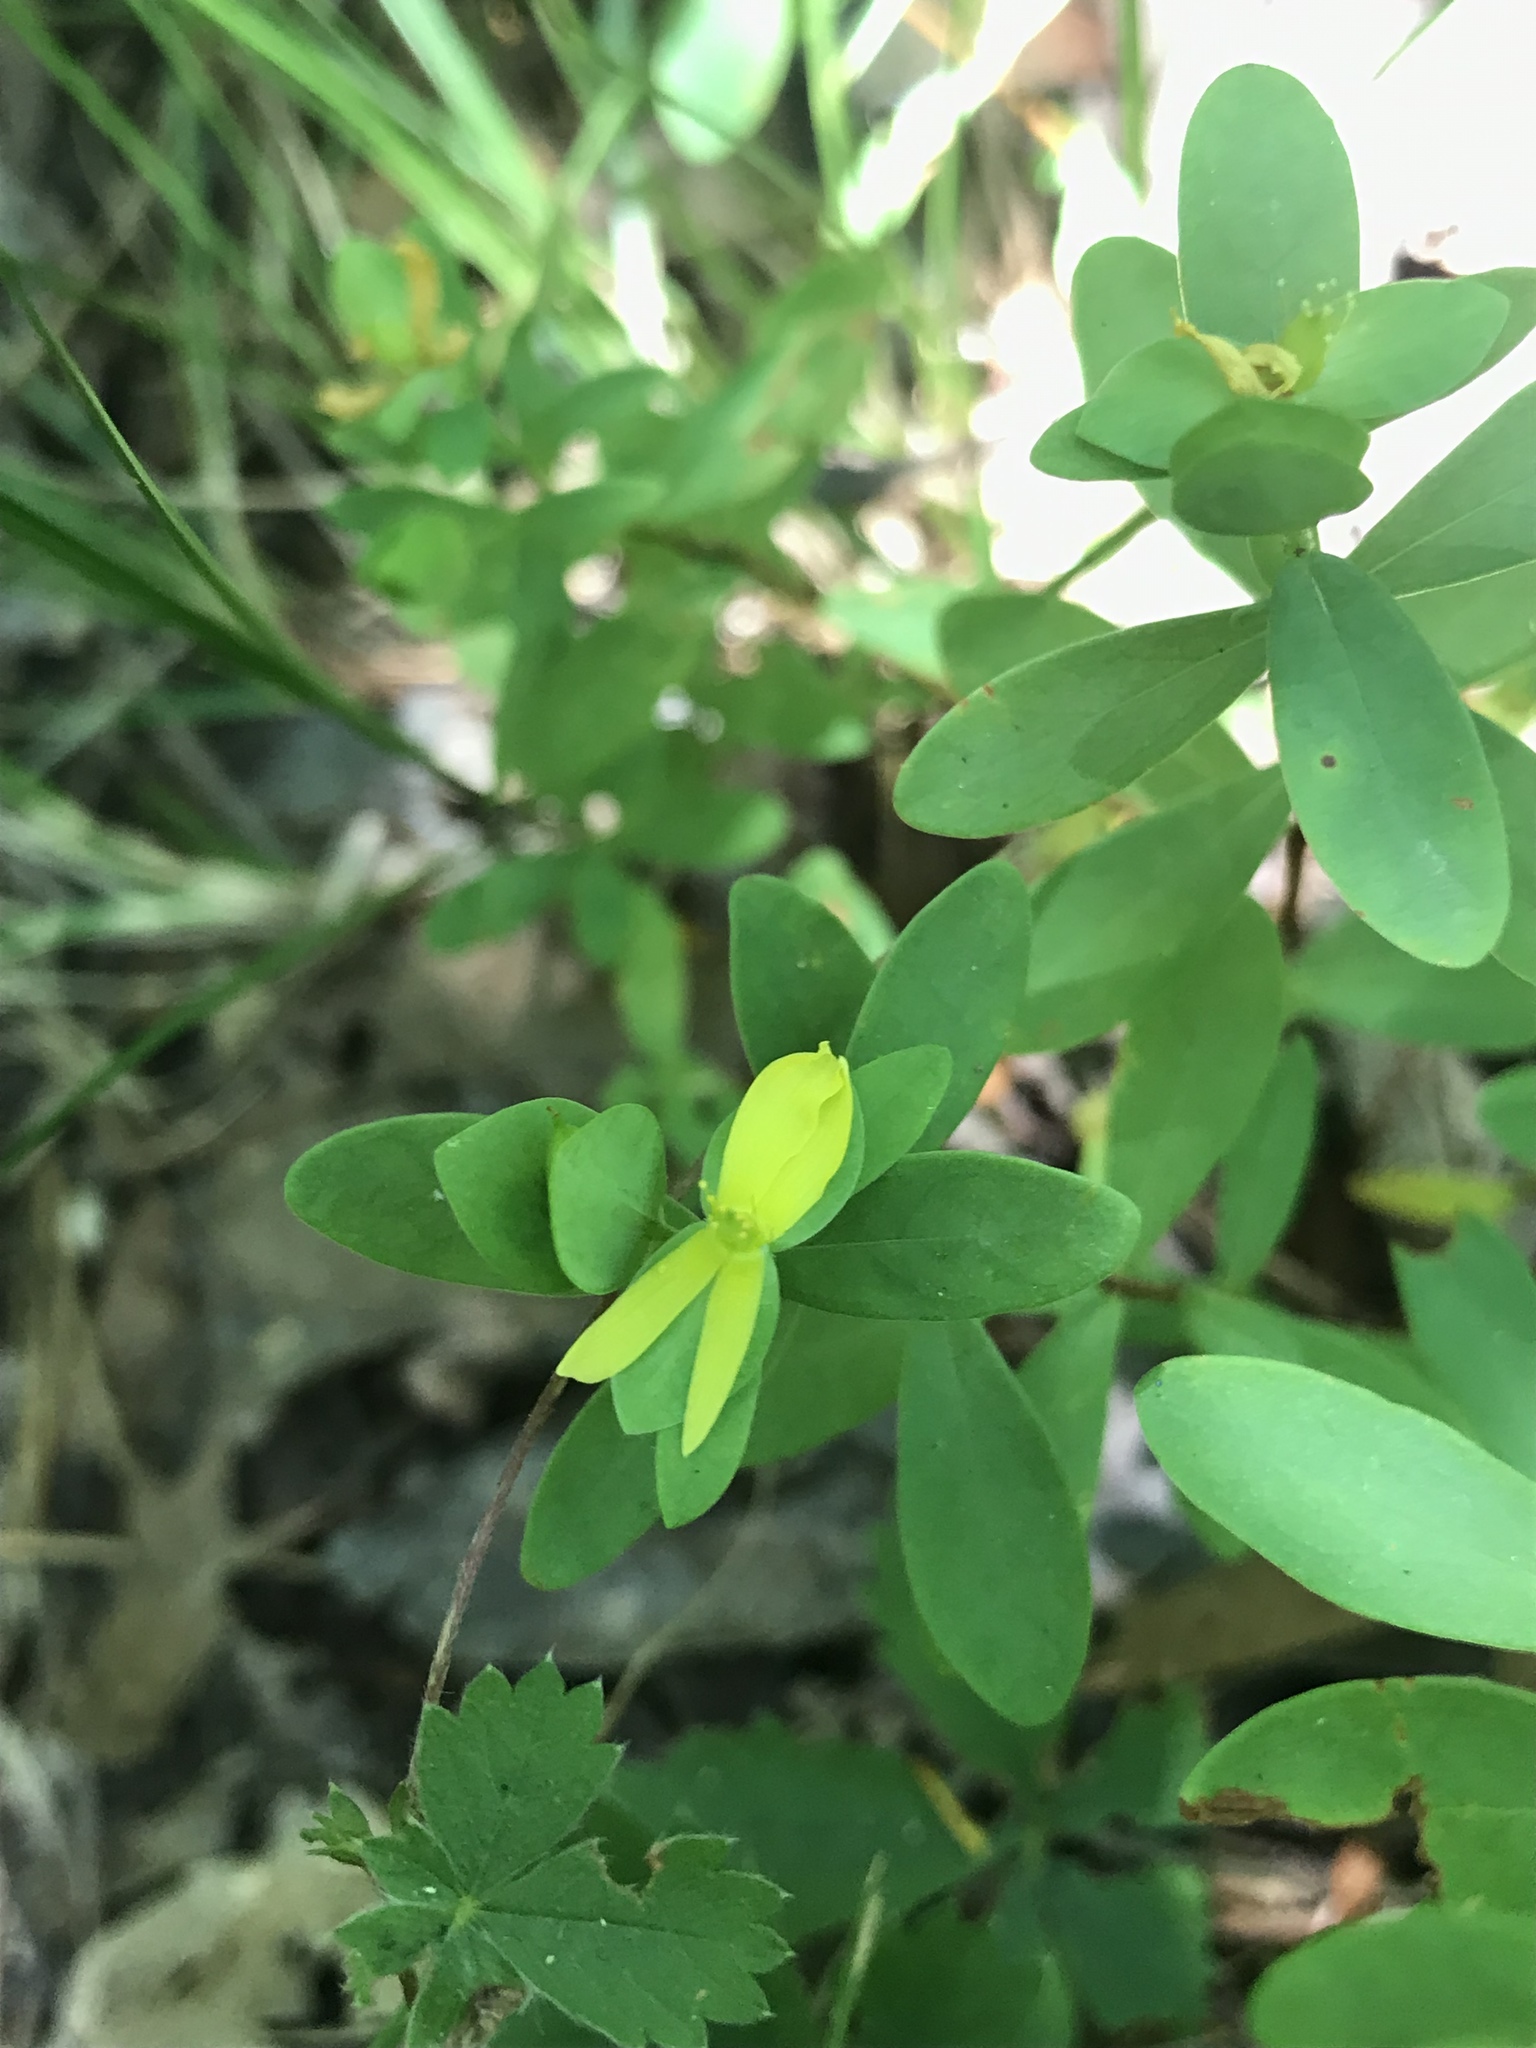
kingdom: Plantae
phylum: Tracheophyta
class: Magnoliopsida
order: Malpighiales
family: Hypericaceae
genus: Hypericum
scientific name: Hypericum hypericoides
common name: St. andrew's cross
